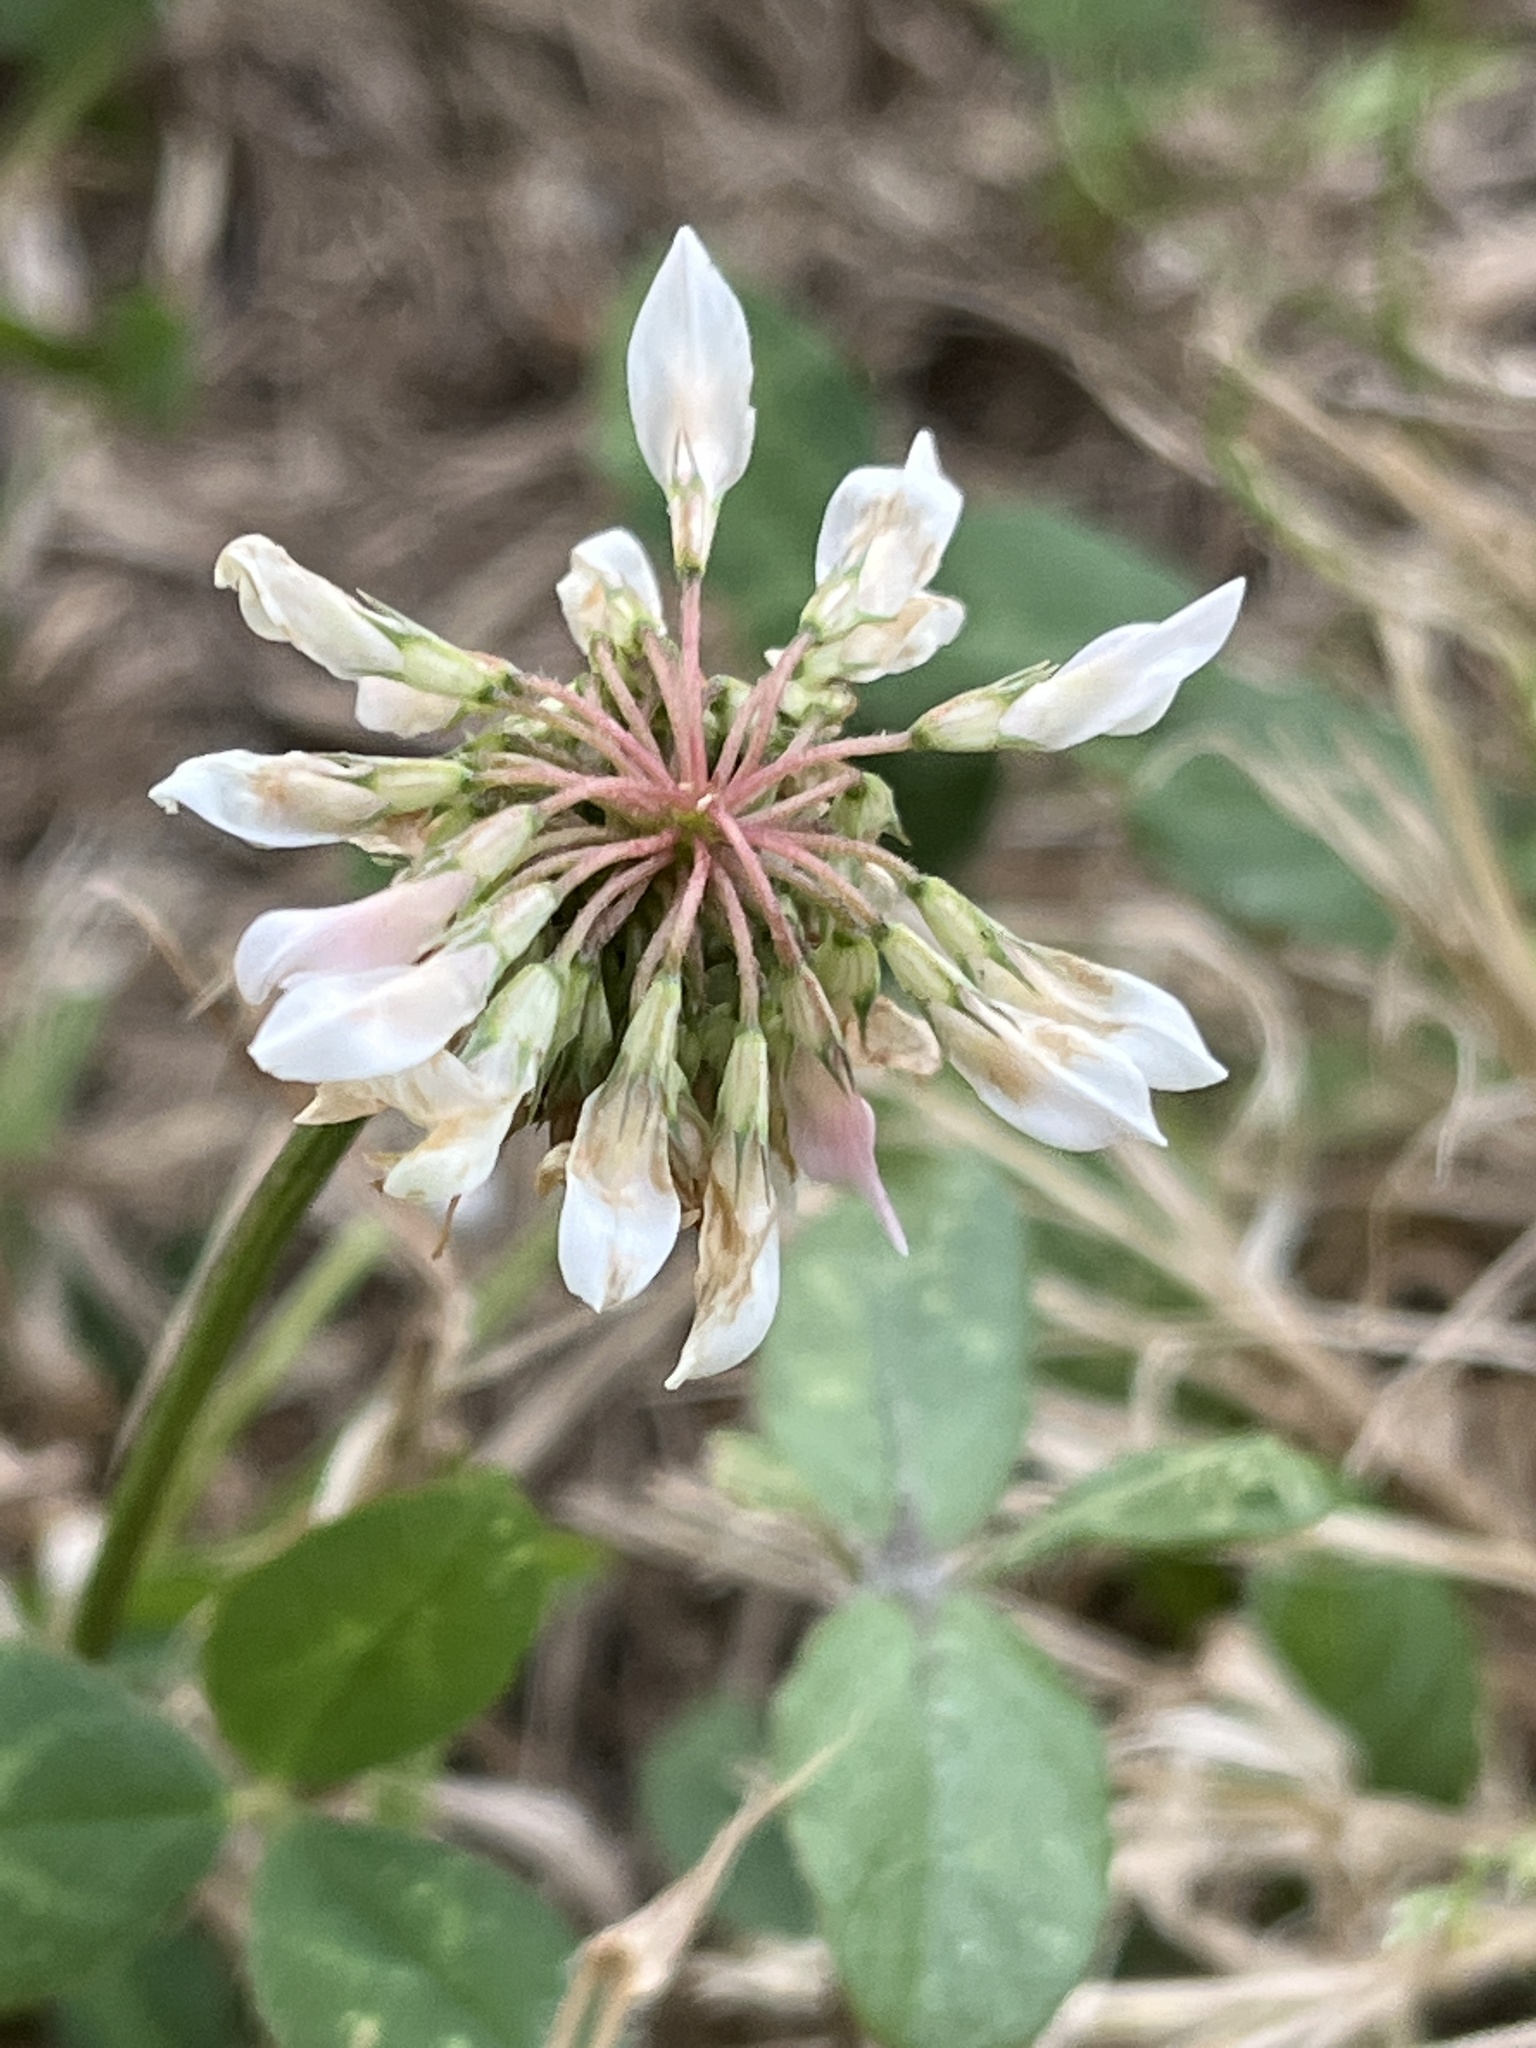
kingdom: Plantae
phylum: Tracheophyta
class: Magnoliopsida
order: Fabales
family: Fabaceae
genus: Trifolium
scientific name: Trifolium repens
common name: White clover
